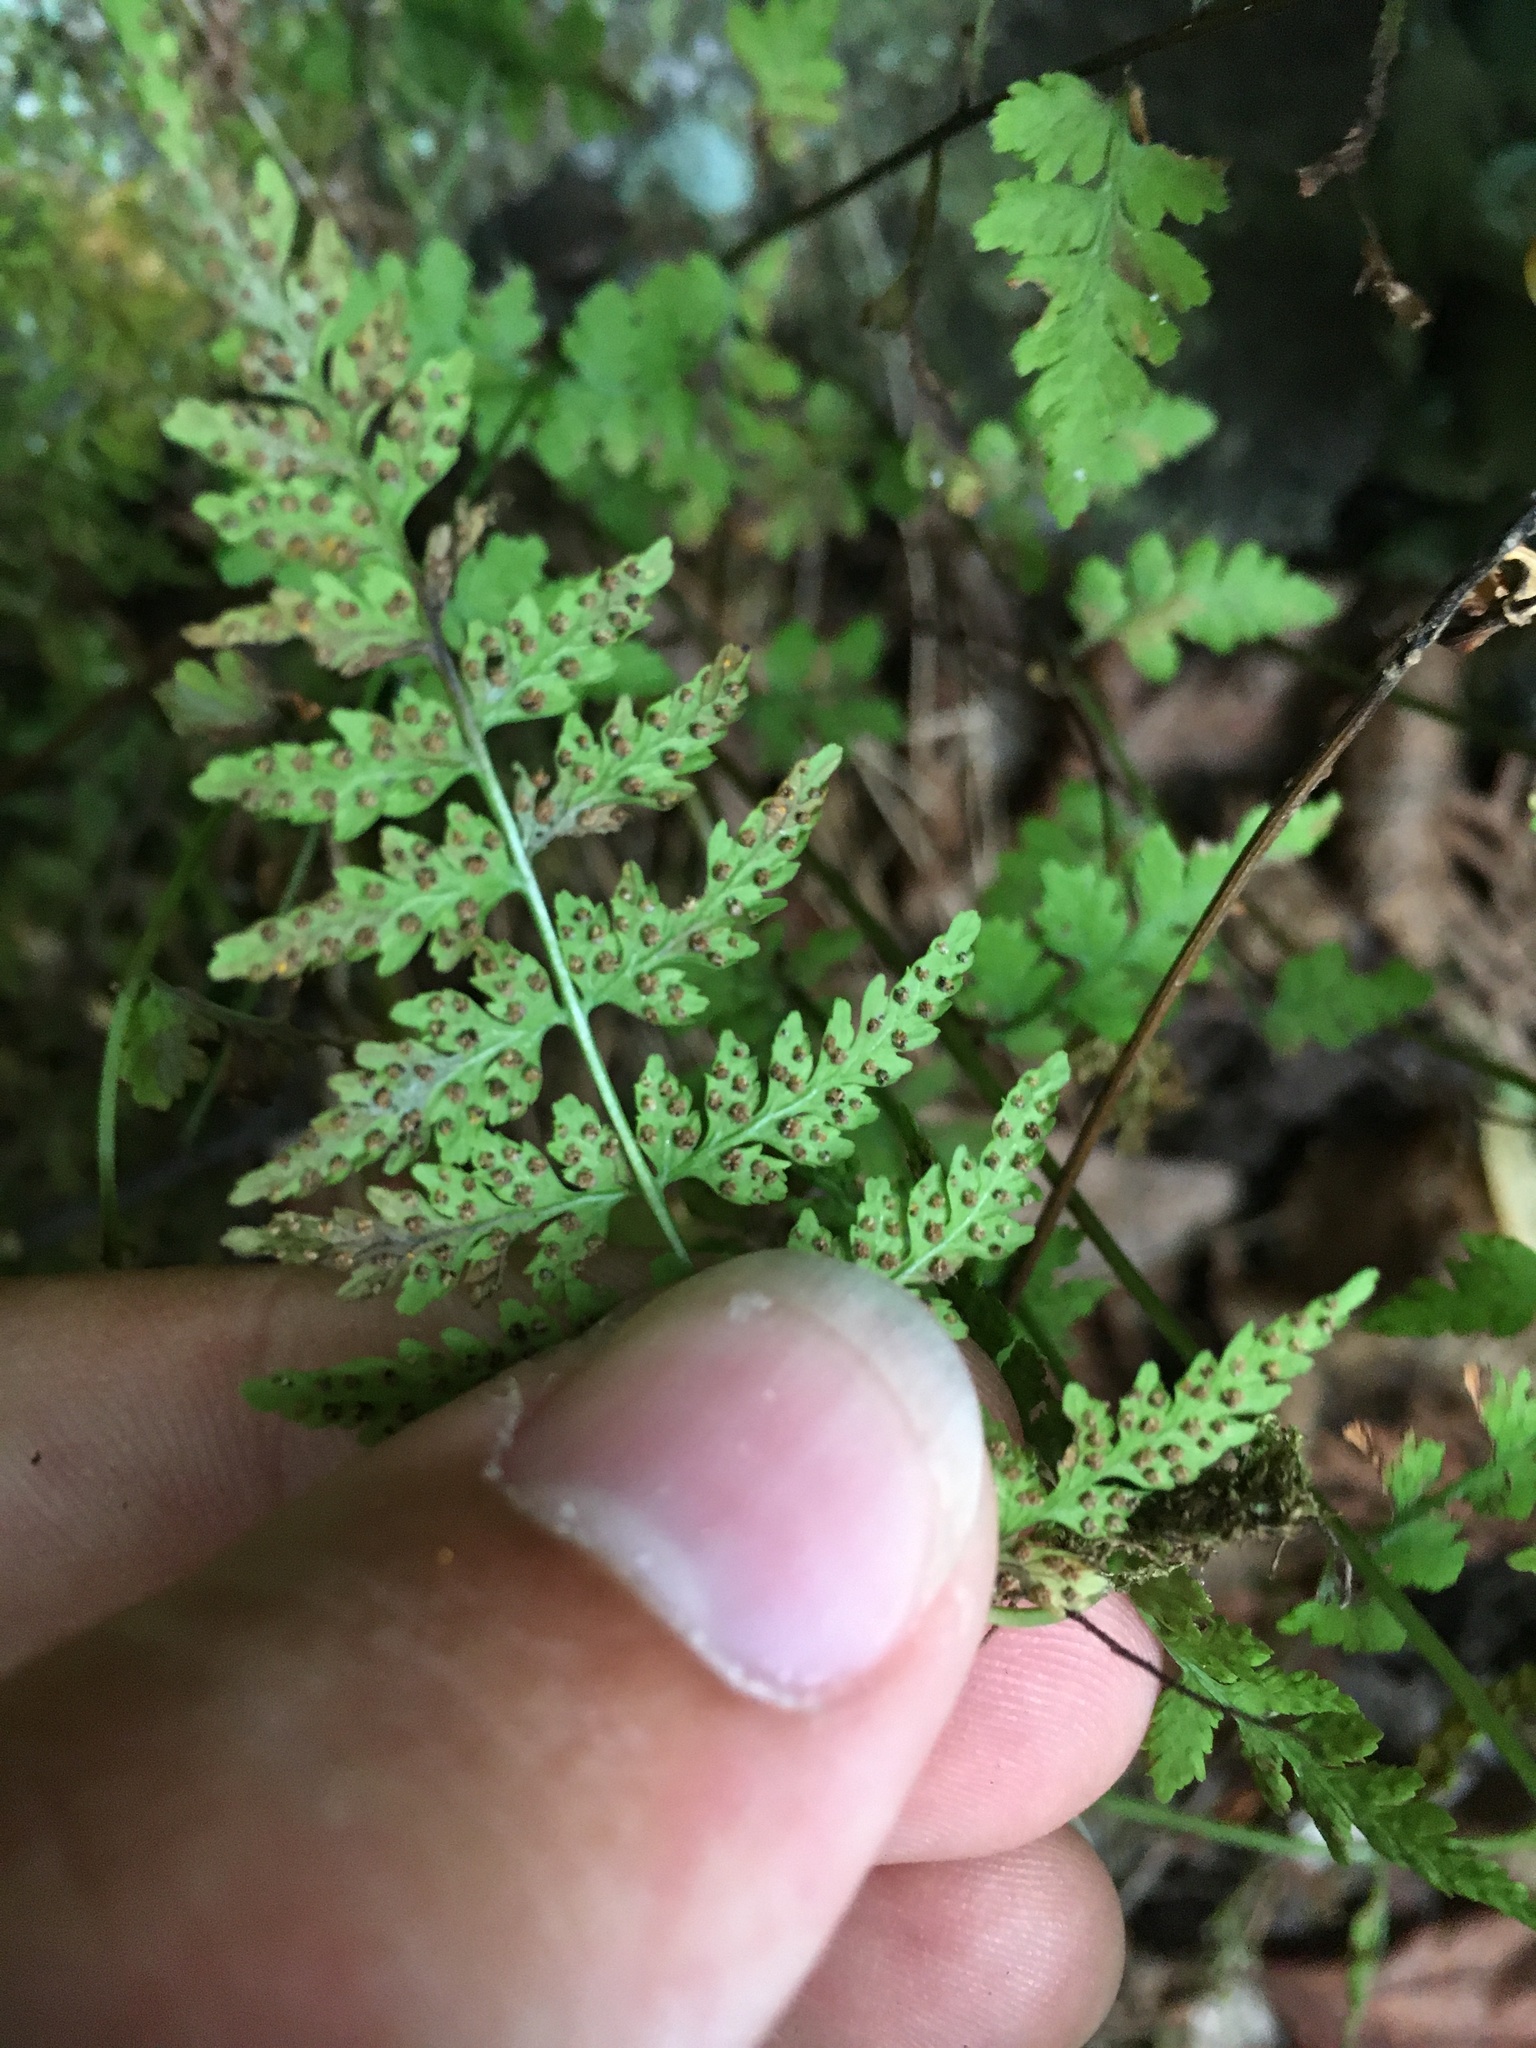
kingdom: Plantae
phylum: Tracheophyta
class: Polypodiopsida
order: Polypodiales
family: Cystopteridaceae
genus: Cystopteris
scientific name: Cystopteris tenuis
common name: Mackay's brittle fern
